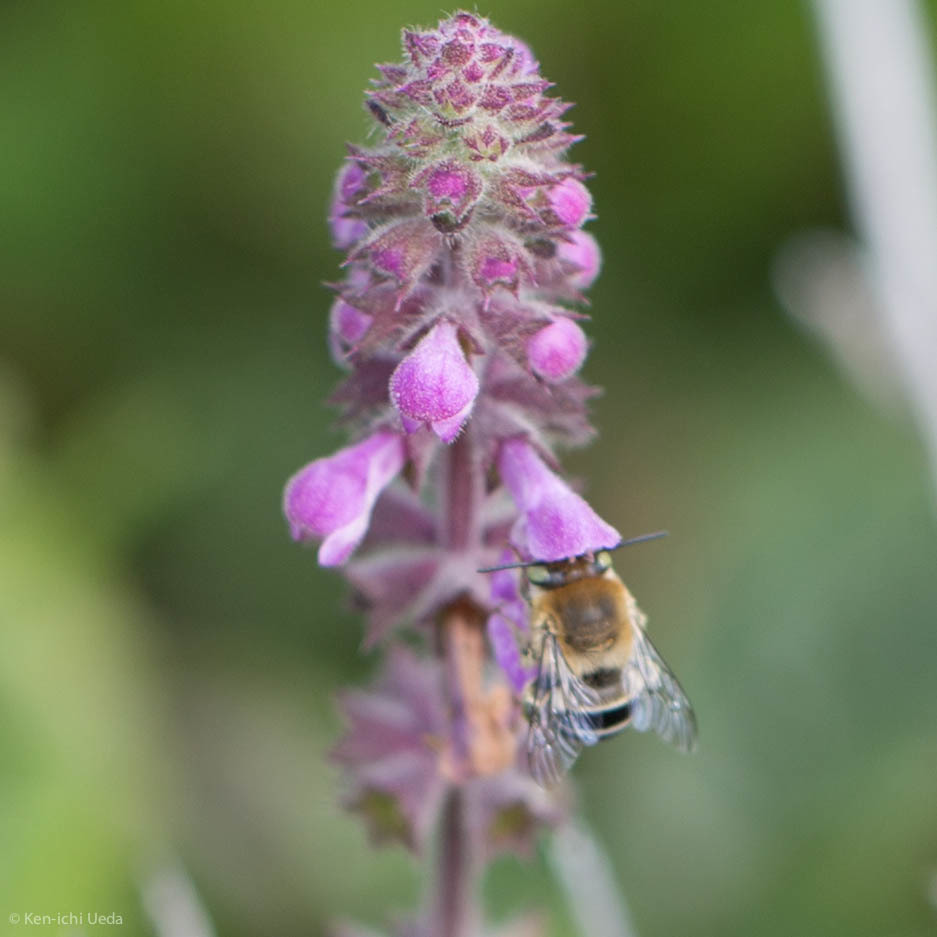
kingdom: Animalia
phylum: Arthropoda
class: Insecta
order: Hymenoptera
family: Apidae
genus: Anthophora
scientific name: Anthophora californica
